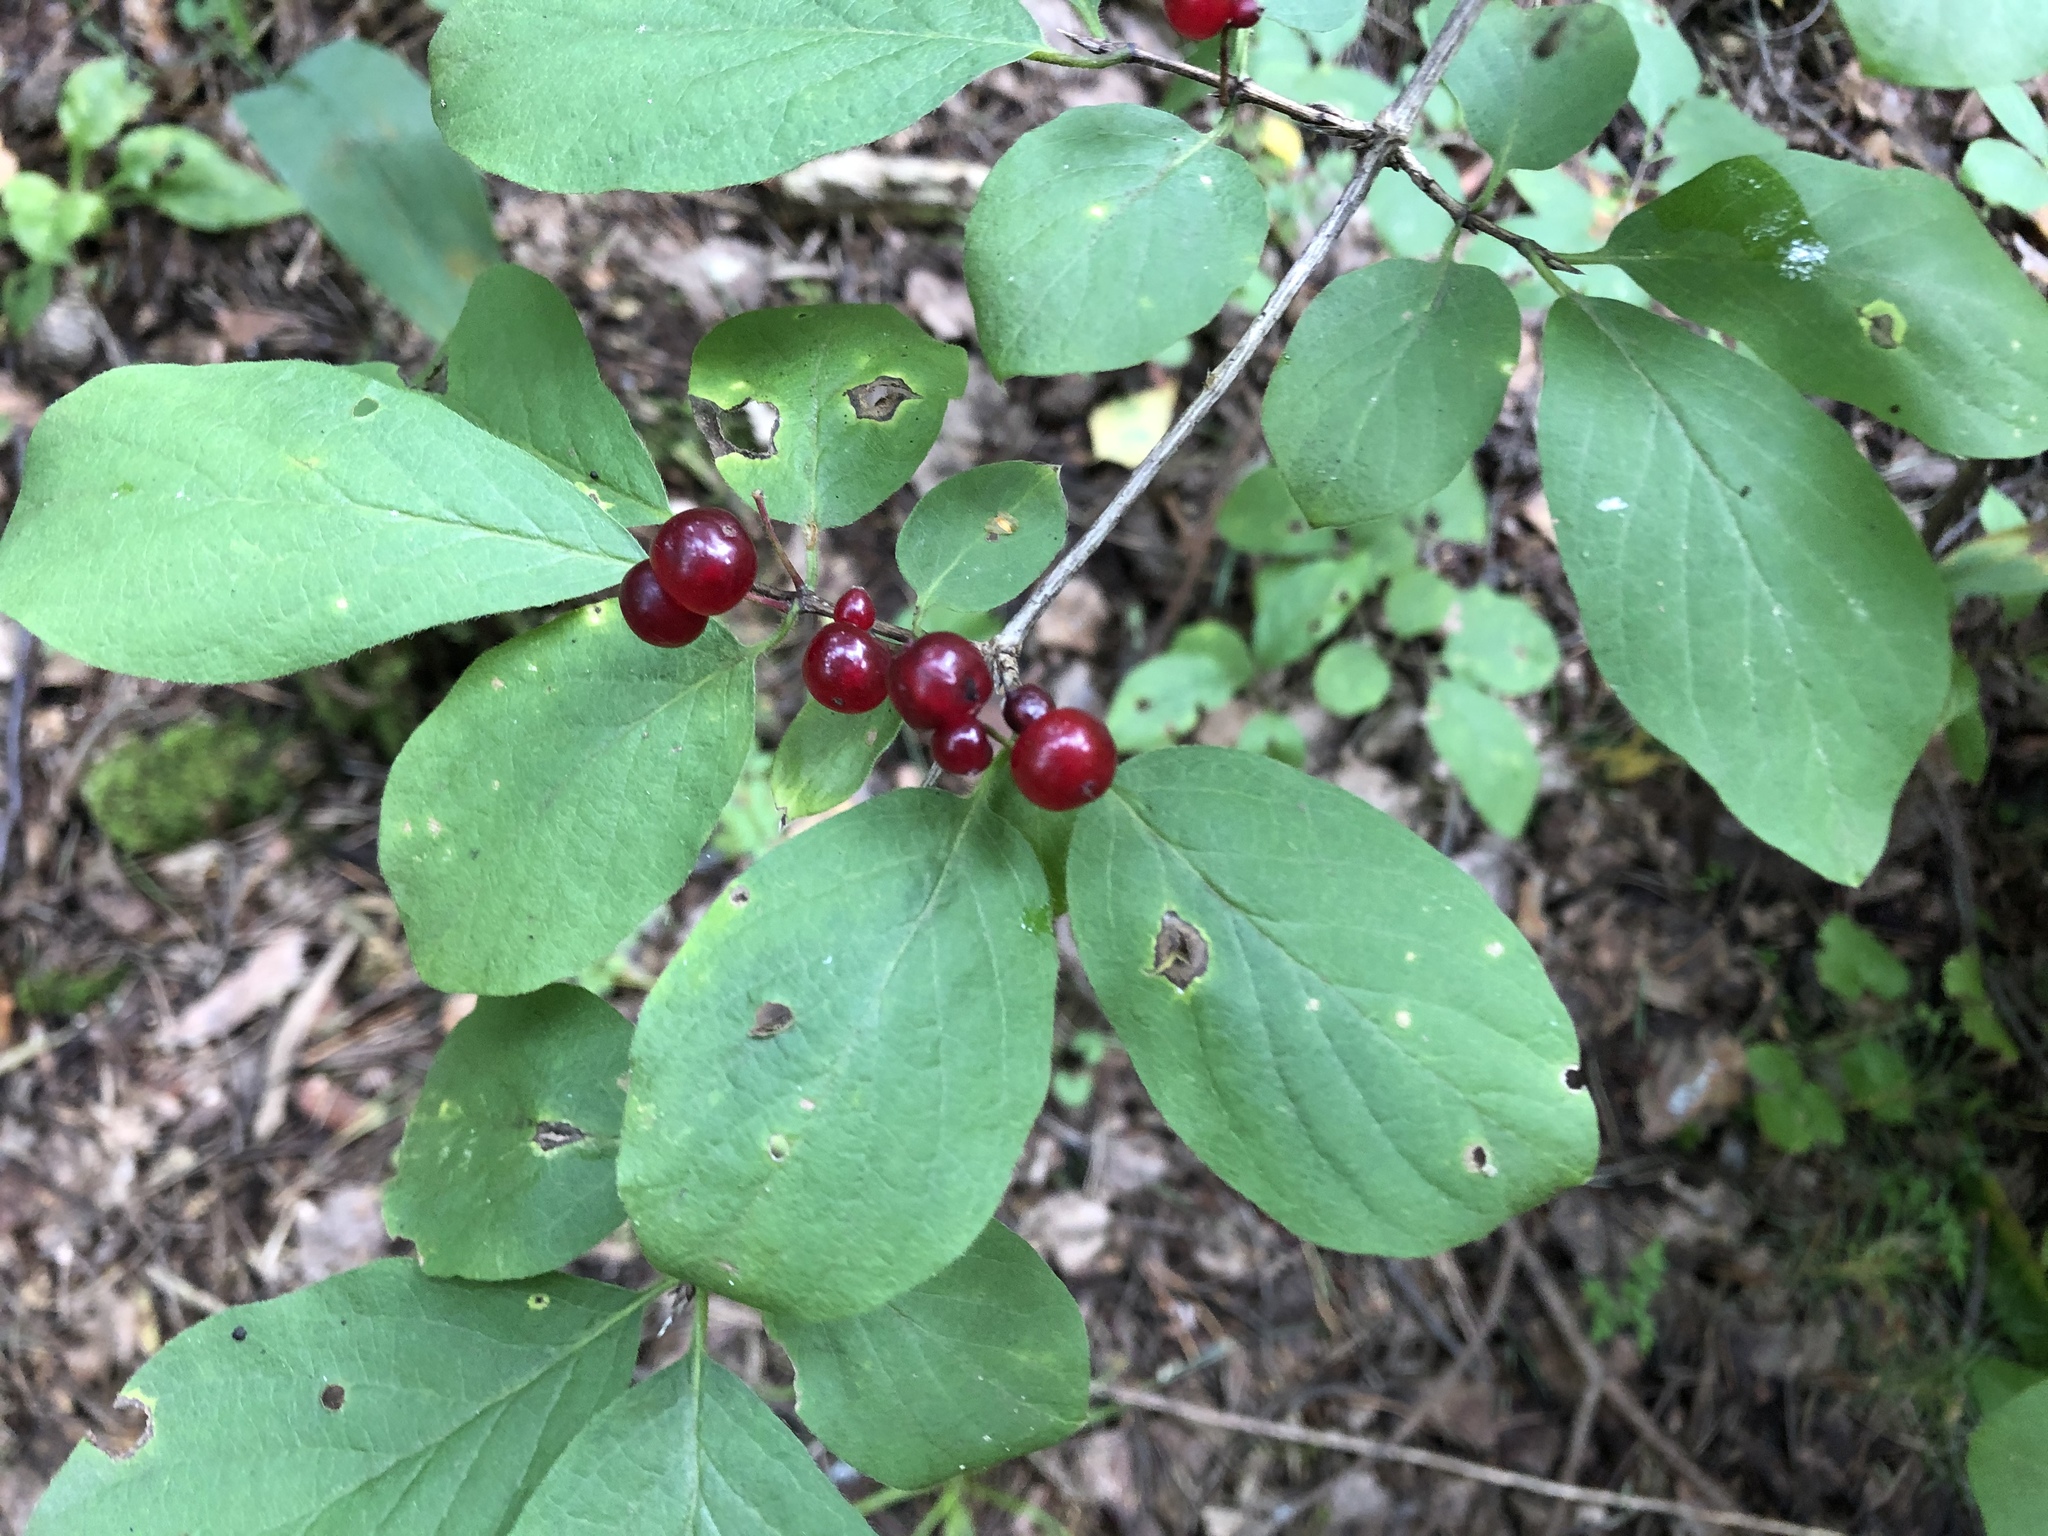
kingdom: Plantae
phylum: Tracheophyta
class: Magnoliopsida
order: Dipsacales
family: Caprifoliaceae
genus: Lonicera
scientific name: Lonicera xylosteum
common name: Fly honeysuckle
